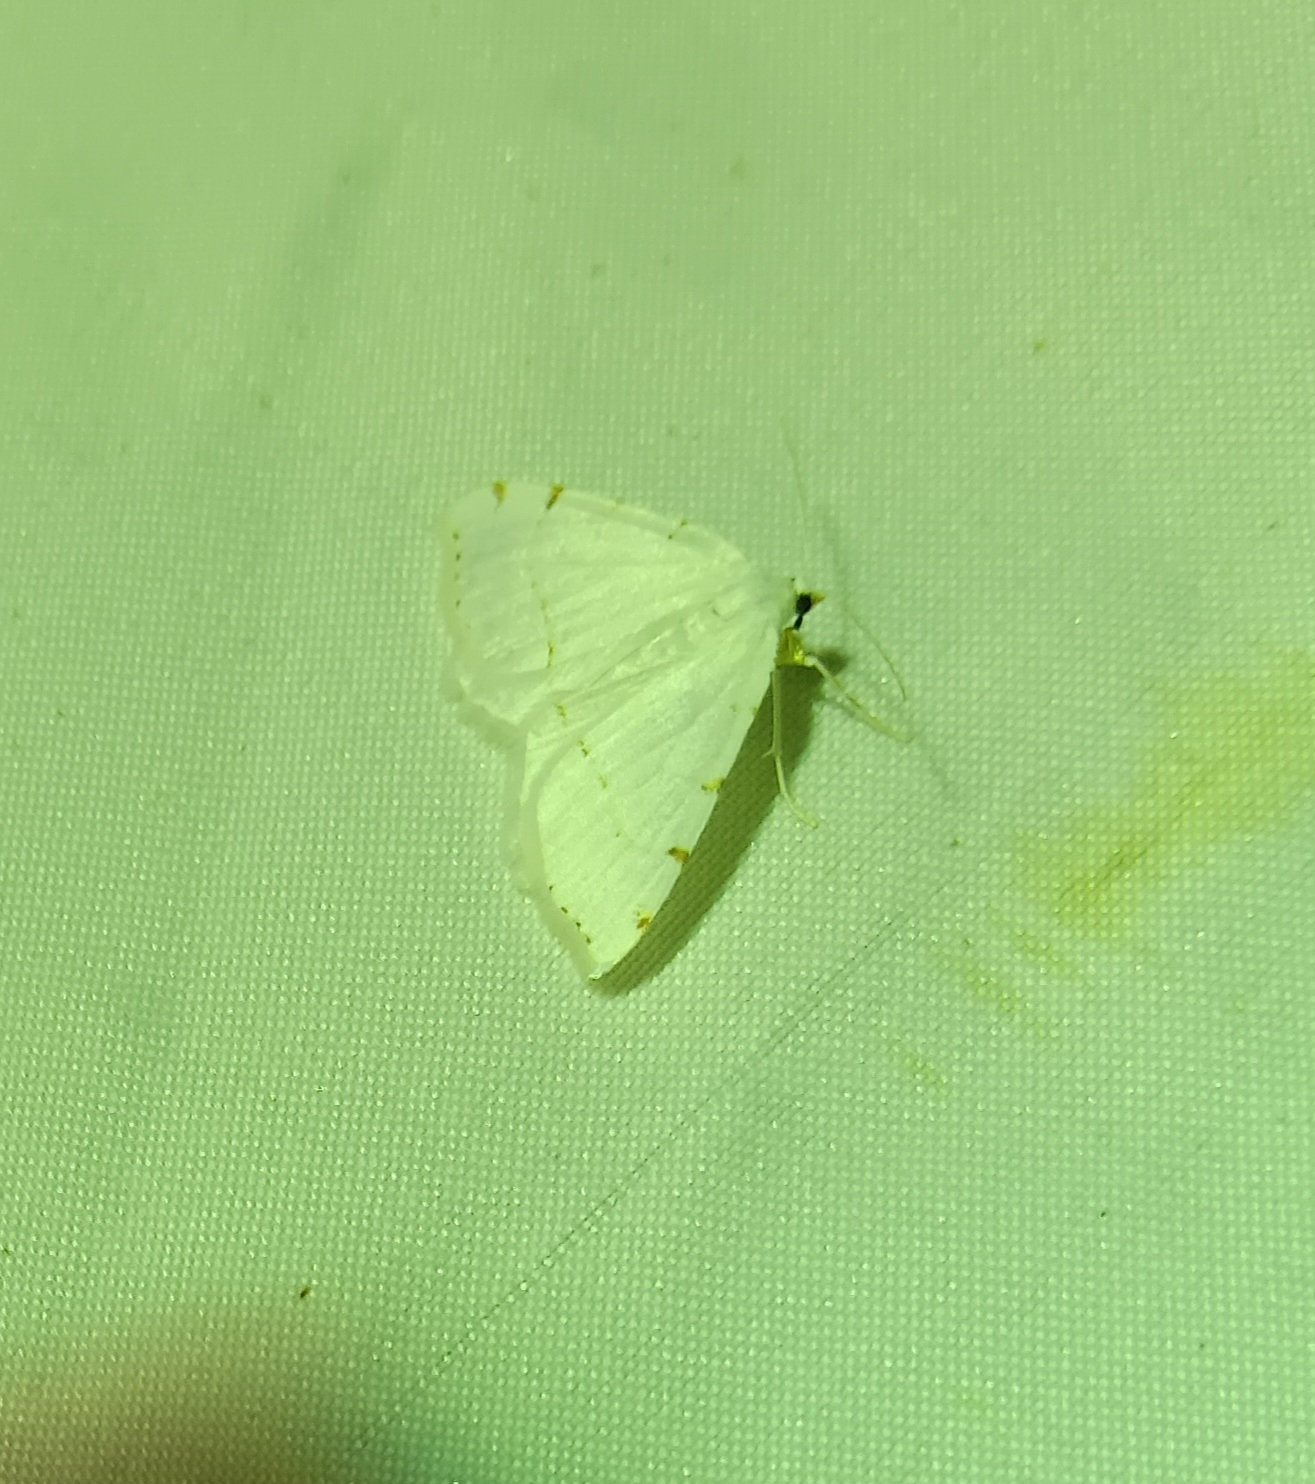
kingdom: Animalia
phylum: Arthropoda
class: Insecta
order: Lepidoptera
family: Geometridae
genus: Macaria
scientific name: Macaria pustularia
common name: Lesser maple spanworm moth
